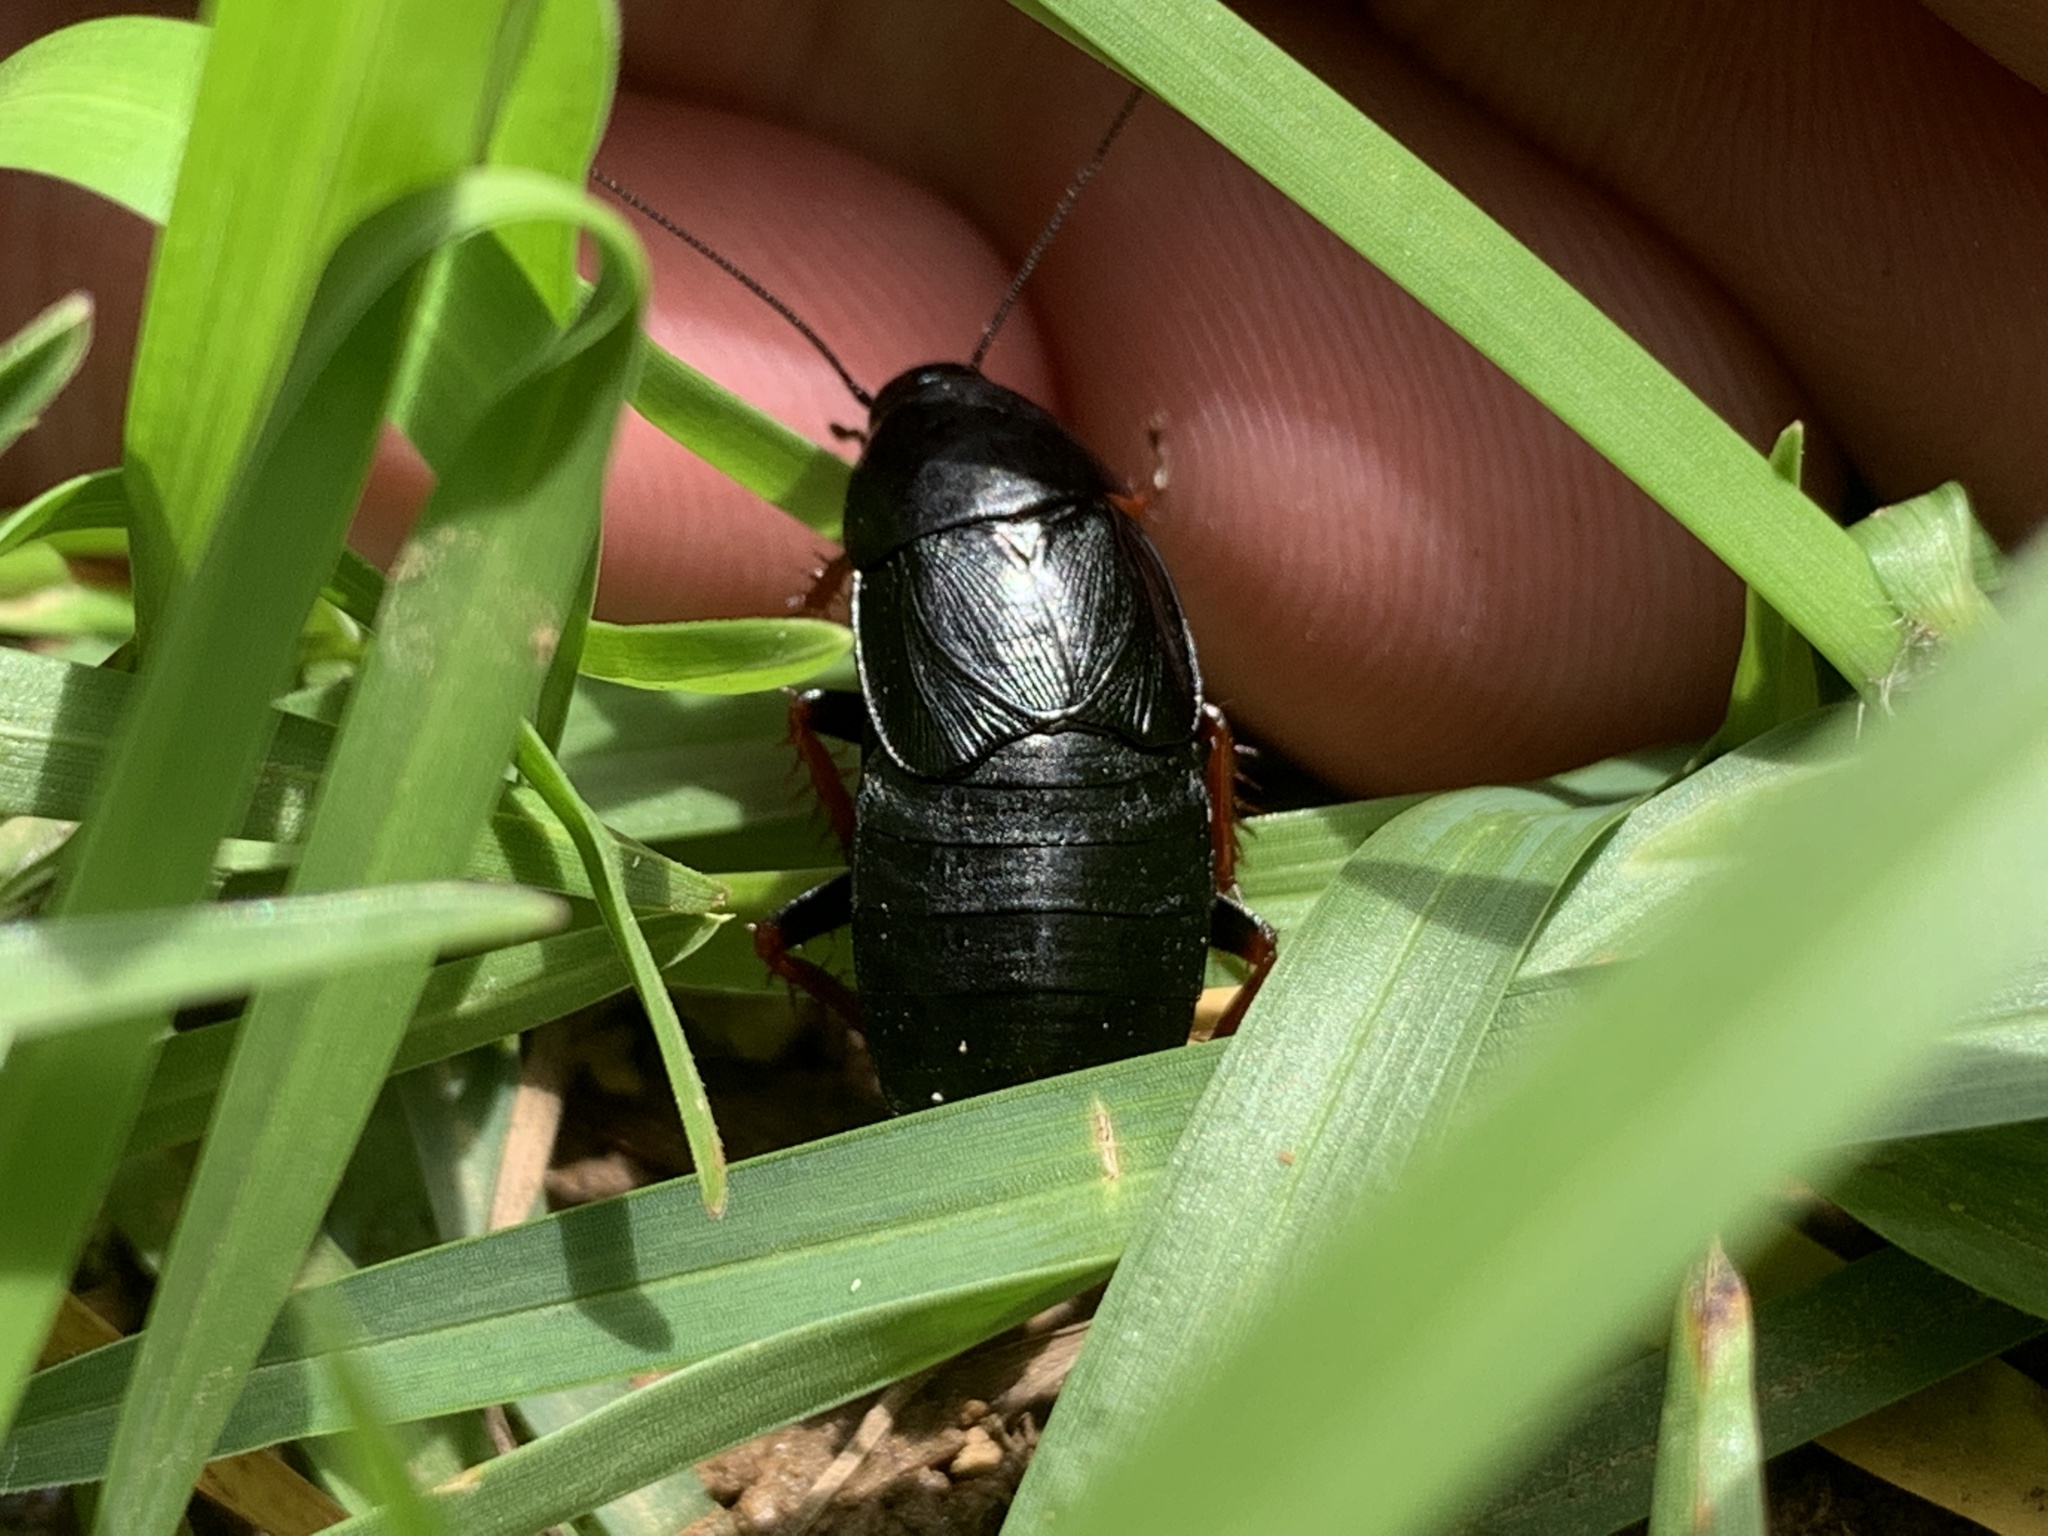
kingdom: Animalia
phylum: Arthropoda
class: Insecta
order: Blattodea
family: Ectobiidae
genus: Ischnoptera
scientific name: Ischnoptera deropeltiformis
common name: Dark wood cockroach
